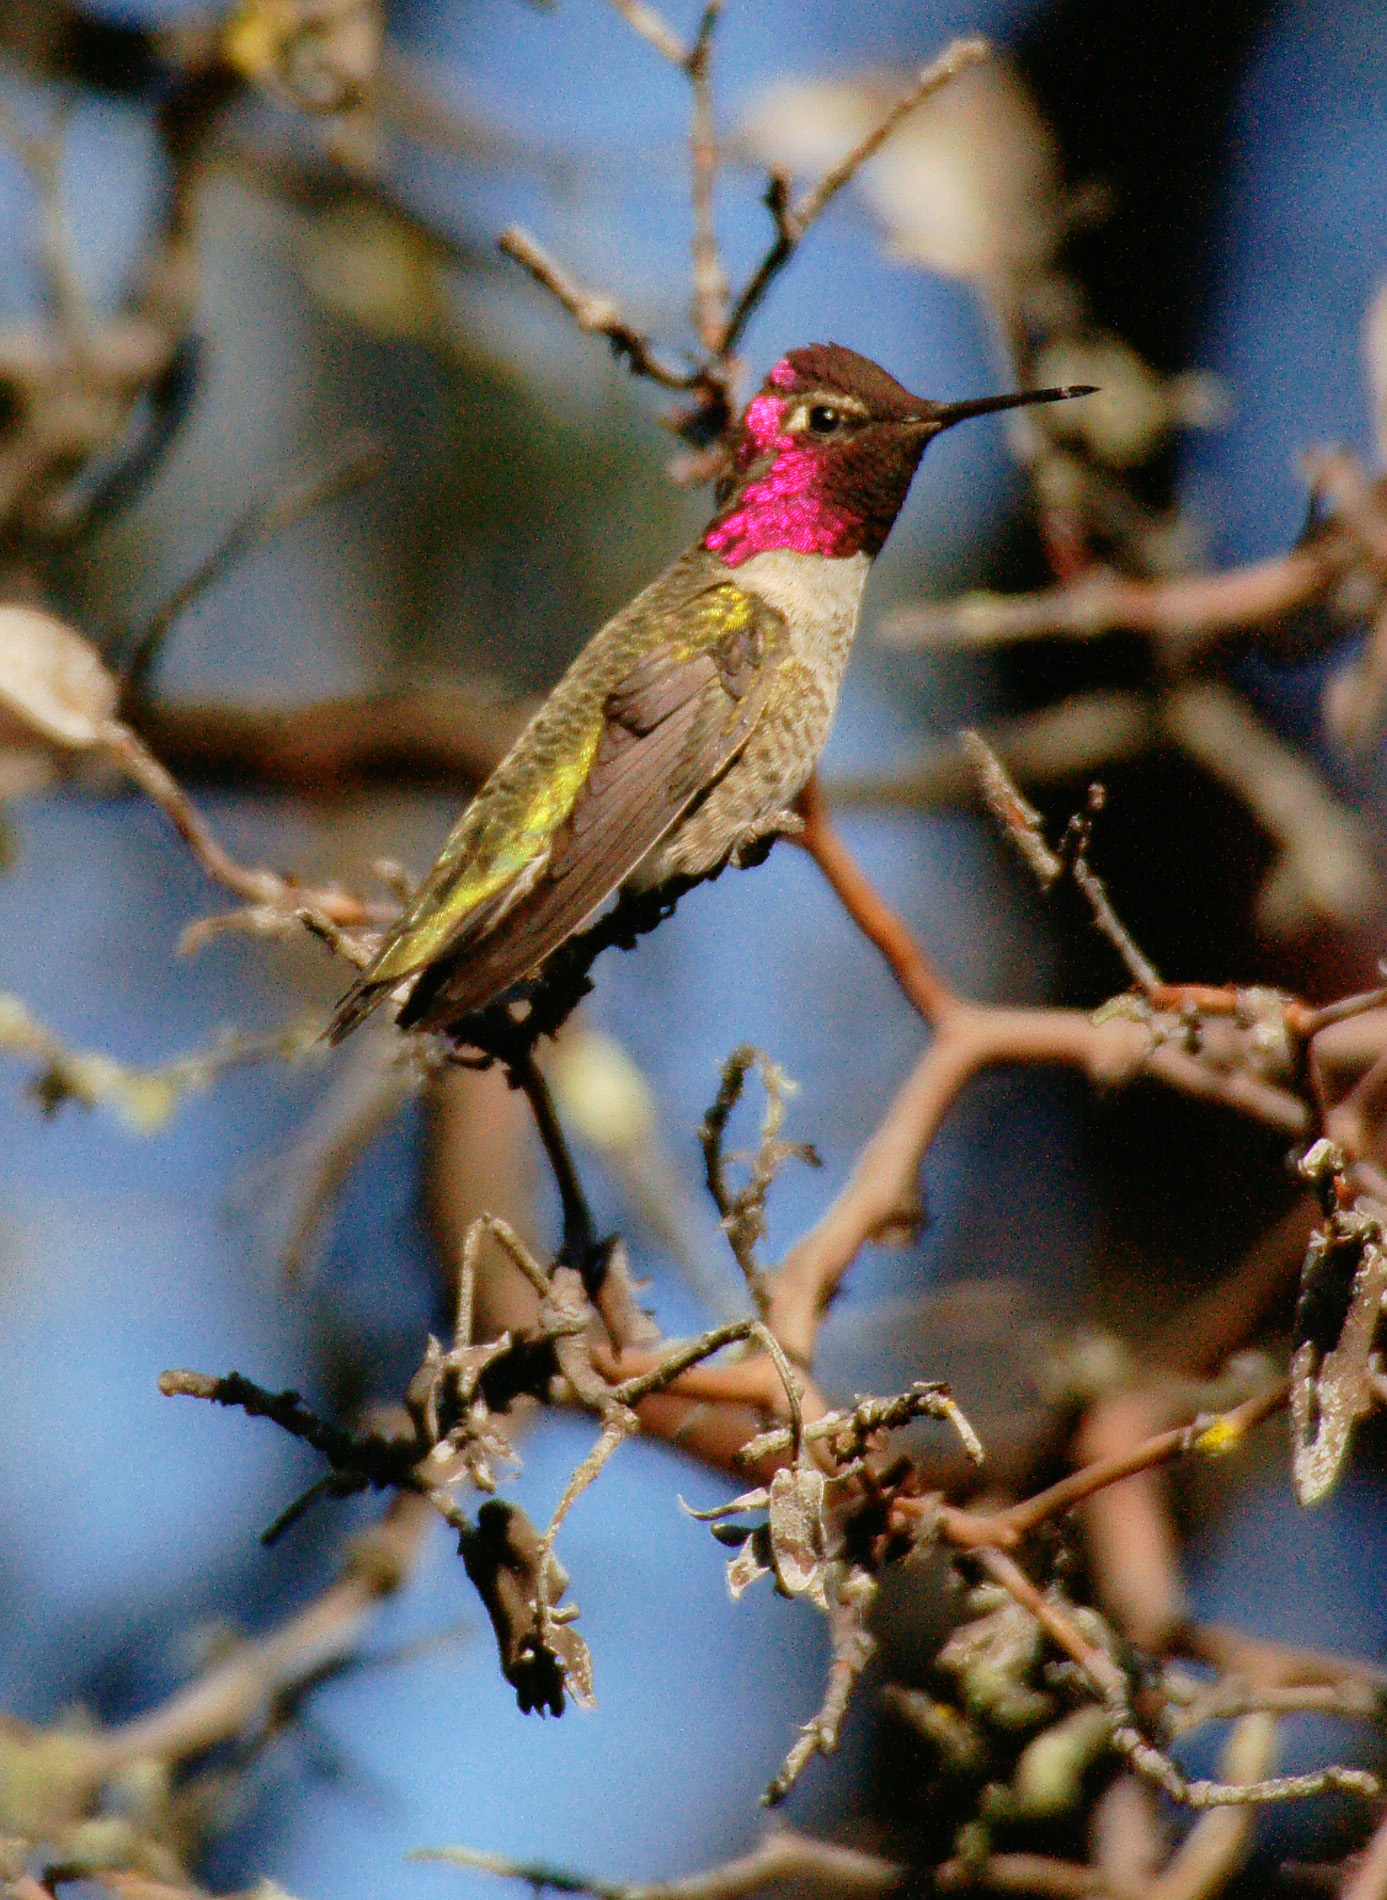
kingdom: Animalia
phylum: Chordata
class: Aves
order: Apodiformes
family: Trochilidae
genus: Calypte
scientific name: Calypte anna
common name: Anna's hummingbird
